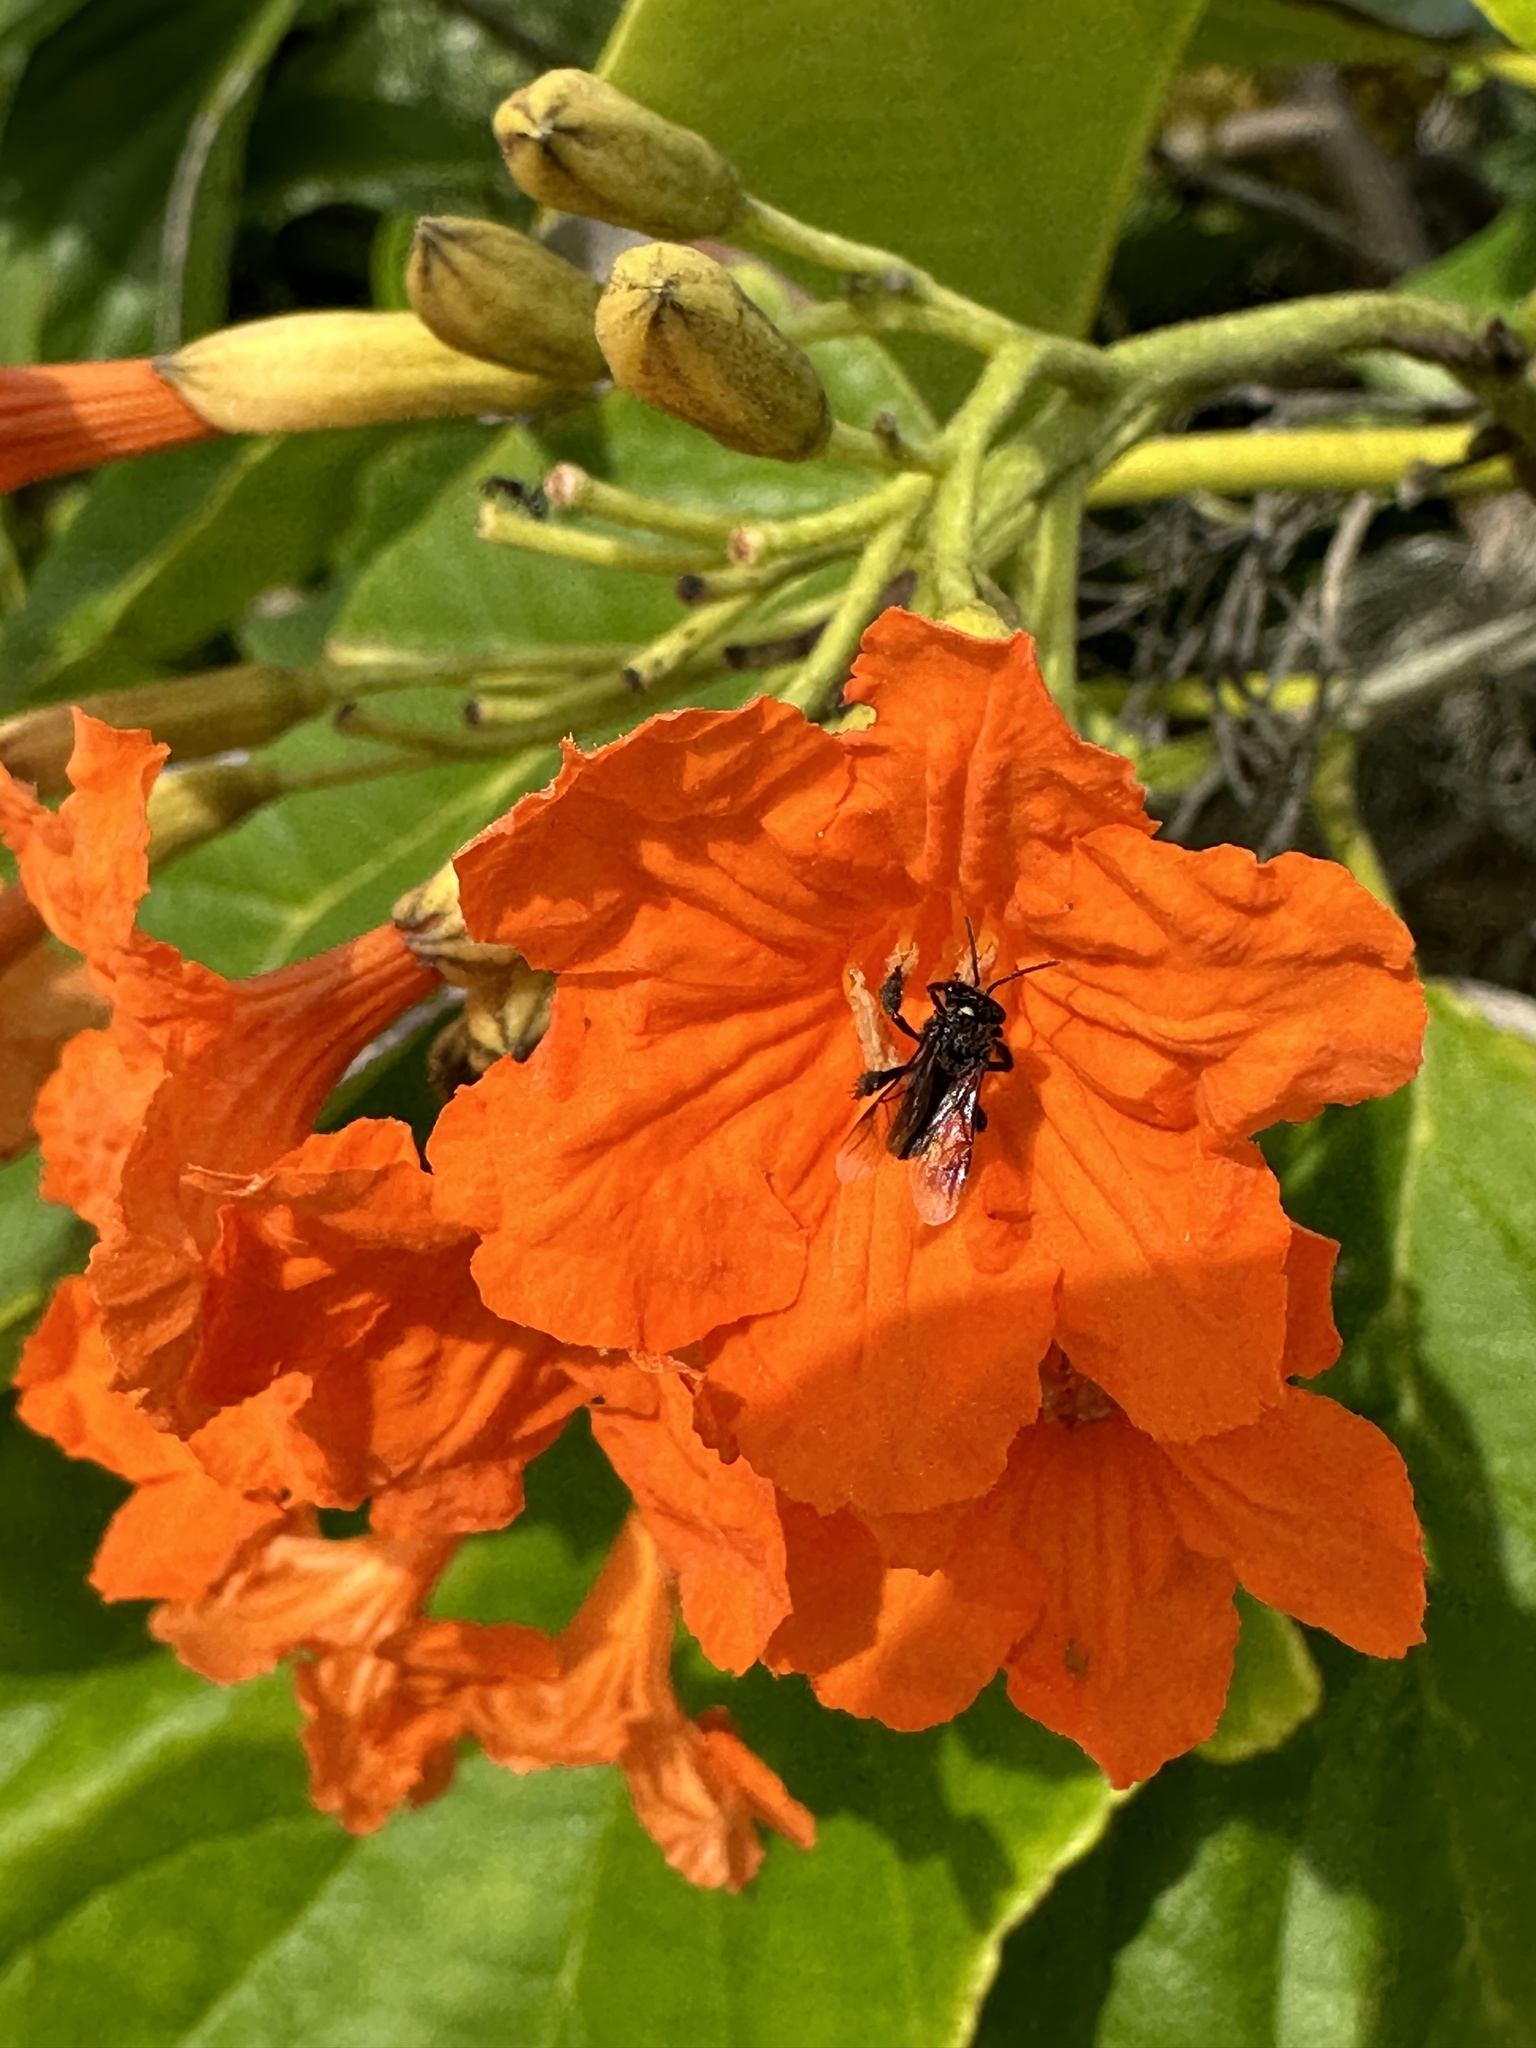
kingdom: Animalia
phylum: Arthropoda
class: Insecta
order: Hymenoptera
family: Apidae
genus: Frieseomelitta
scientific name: Frieseomelitta nigra
